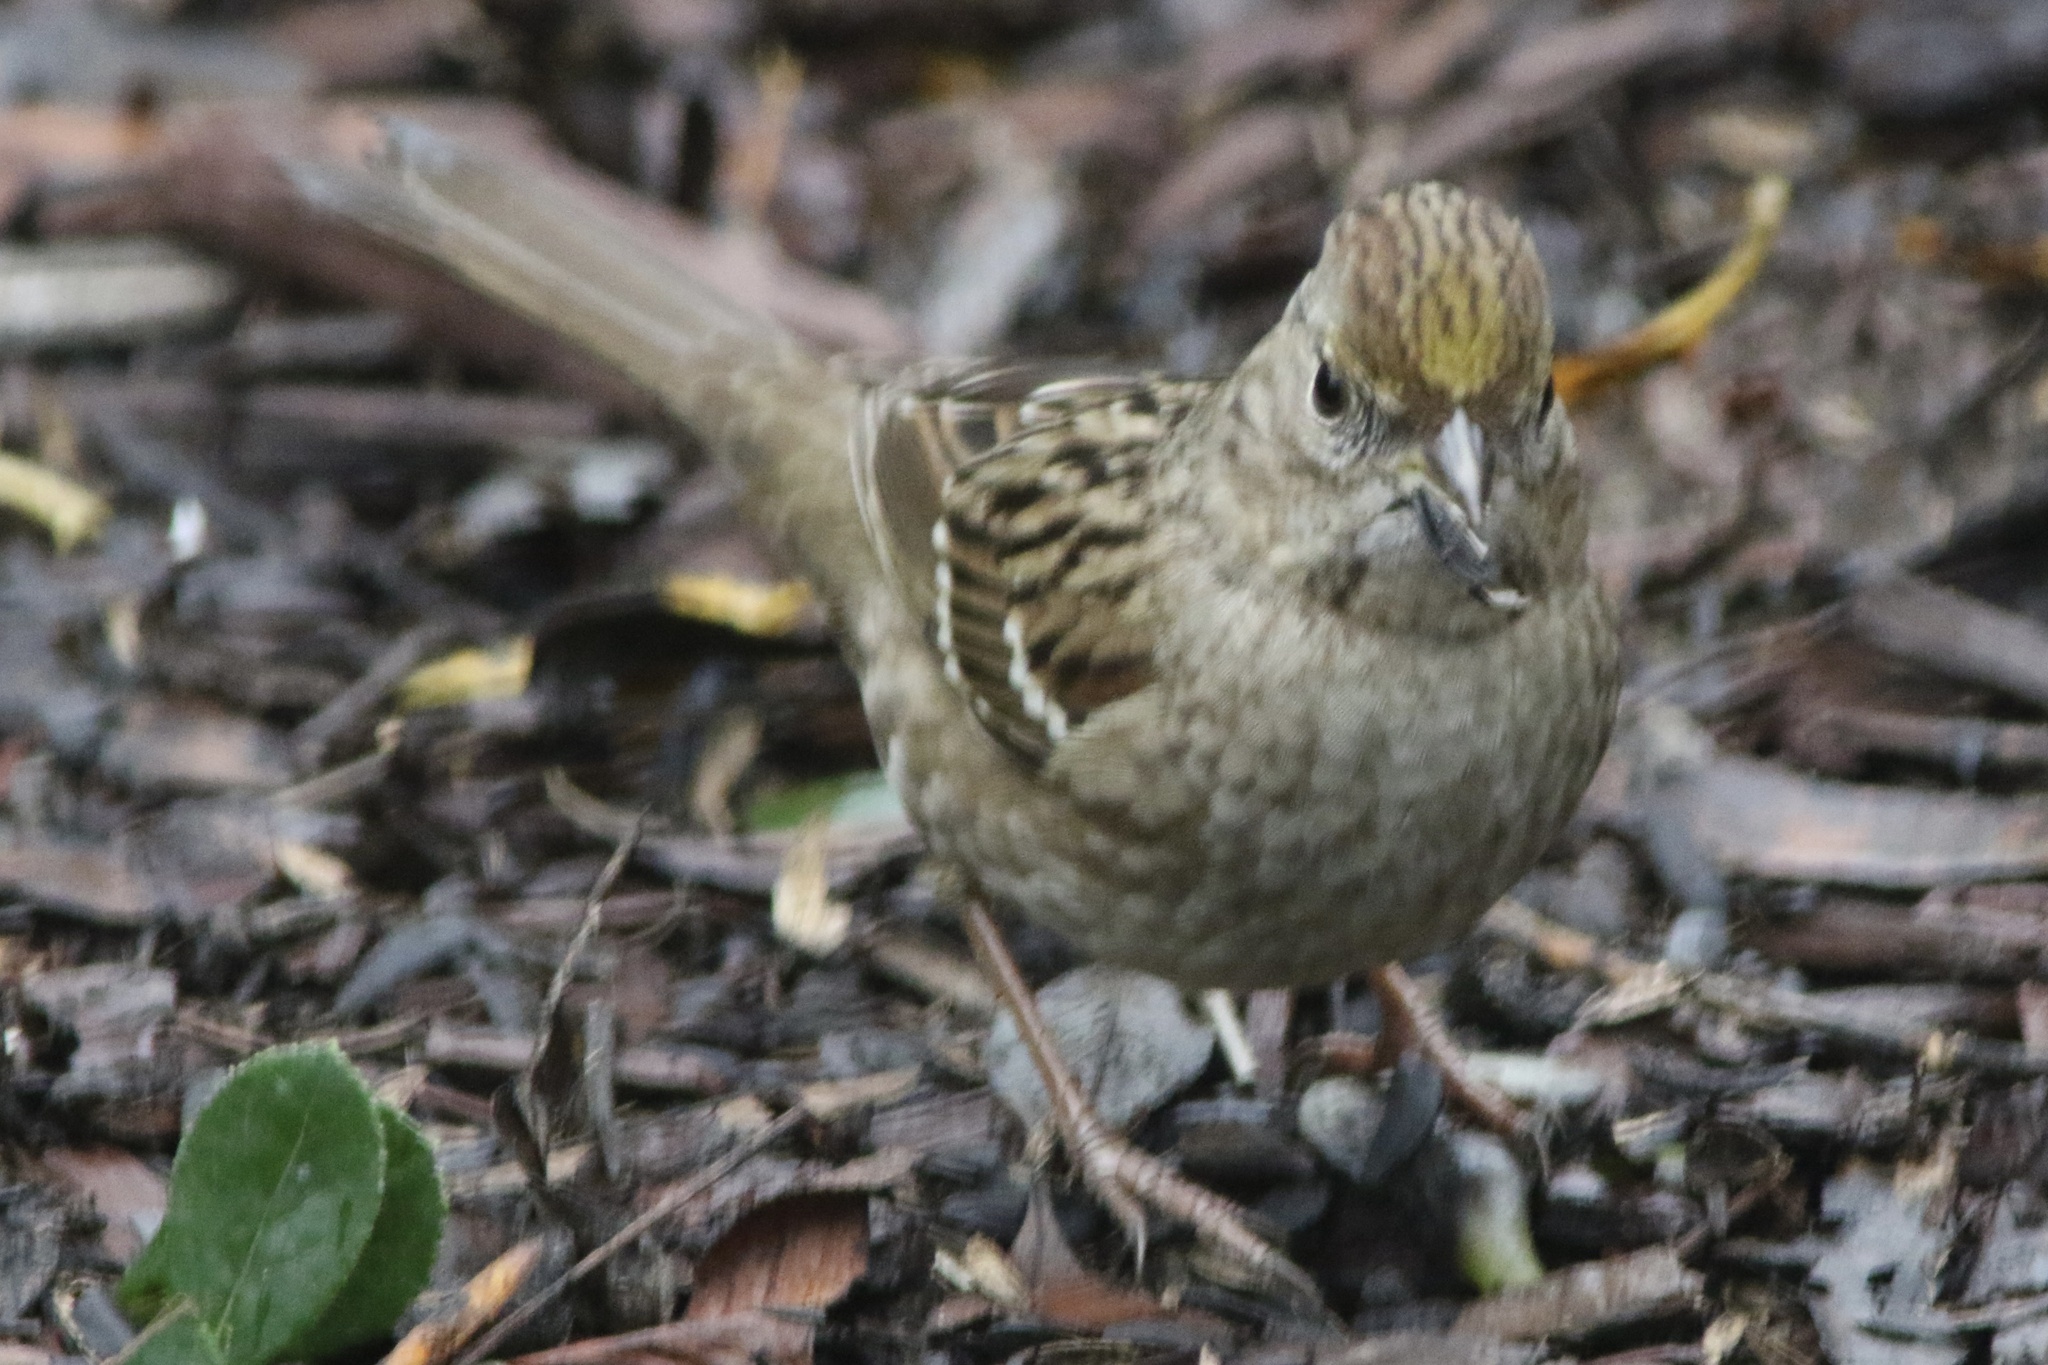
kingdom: Animalia
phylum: Chordata
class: Aves
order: Passeriformes
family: Passerellidae
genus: Zonotrichia
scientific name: Zonotrichia atricapilla
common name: Golden-crowned sparrow
